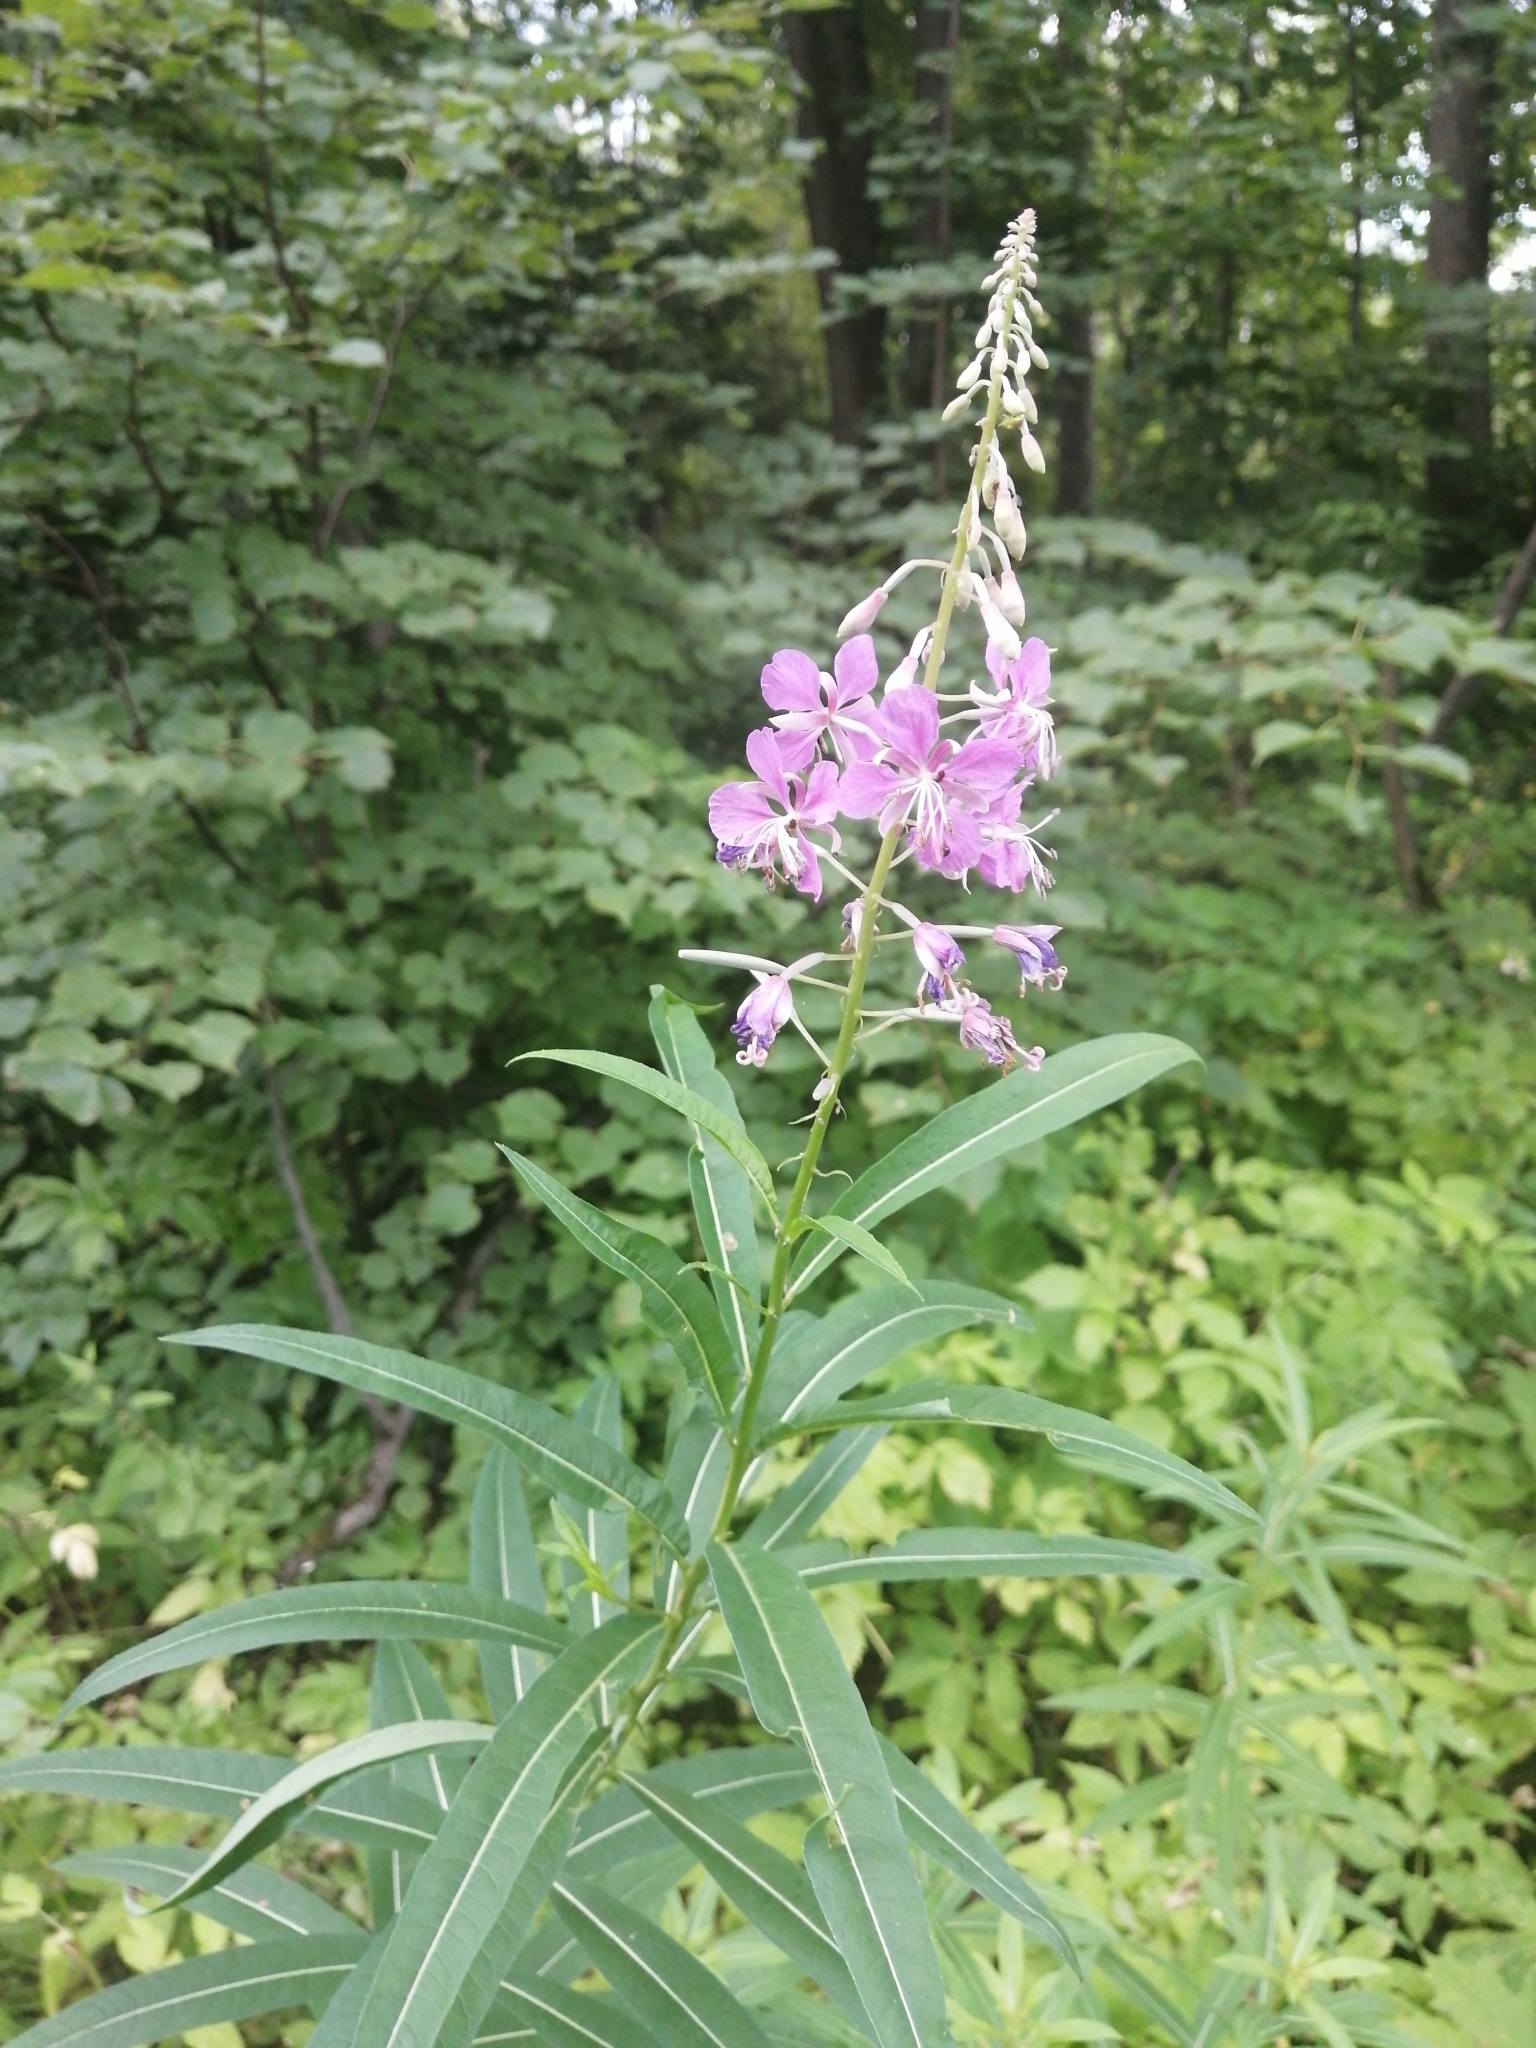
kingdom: Plantae
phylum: Tracheophyta
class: Magnoliopsida
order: Myrtales
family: Onagraceae
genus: Chamaenerion
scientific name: Chamaenerion angustifolium
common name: Fireweed
